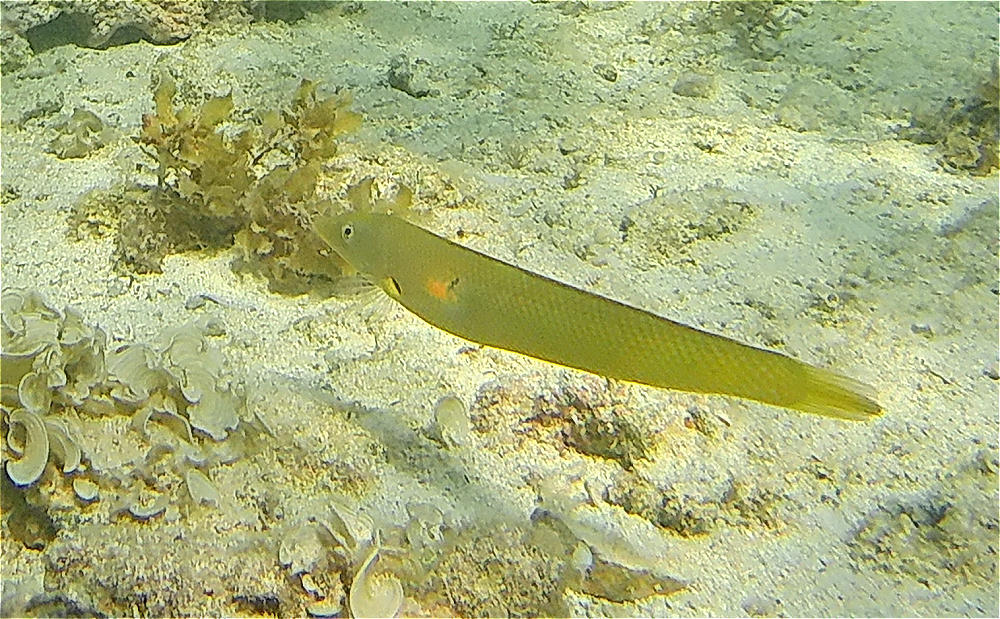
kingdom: Animalia
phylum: Chordata
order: Perciformes
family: Labridae
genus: Cheilio
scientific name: Cheilio inermis
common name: Cigar wrasse
